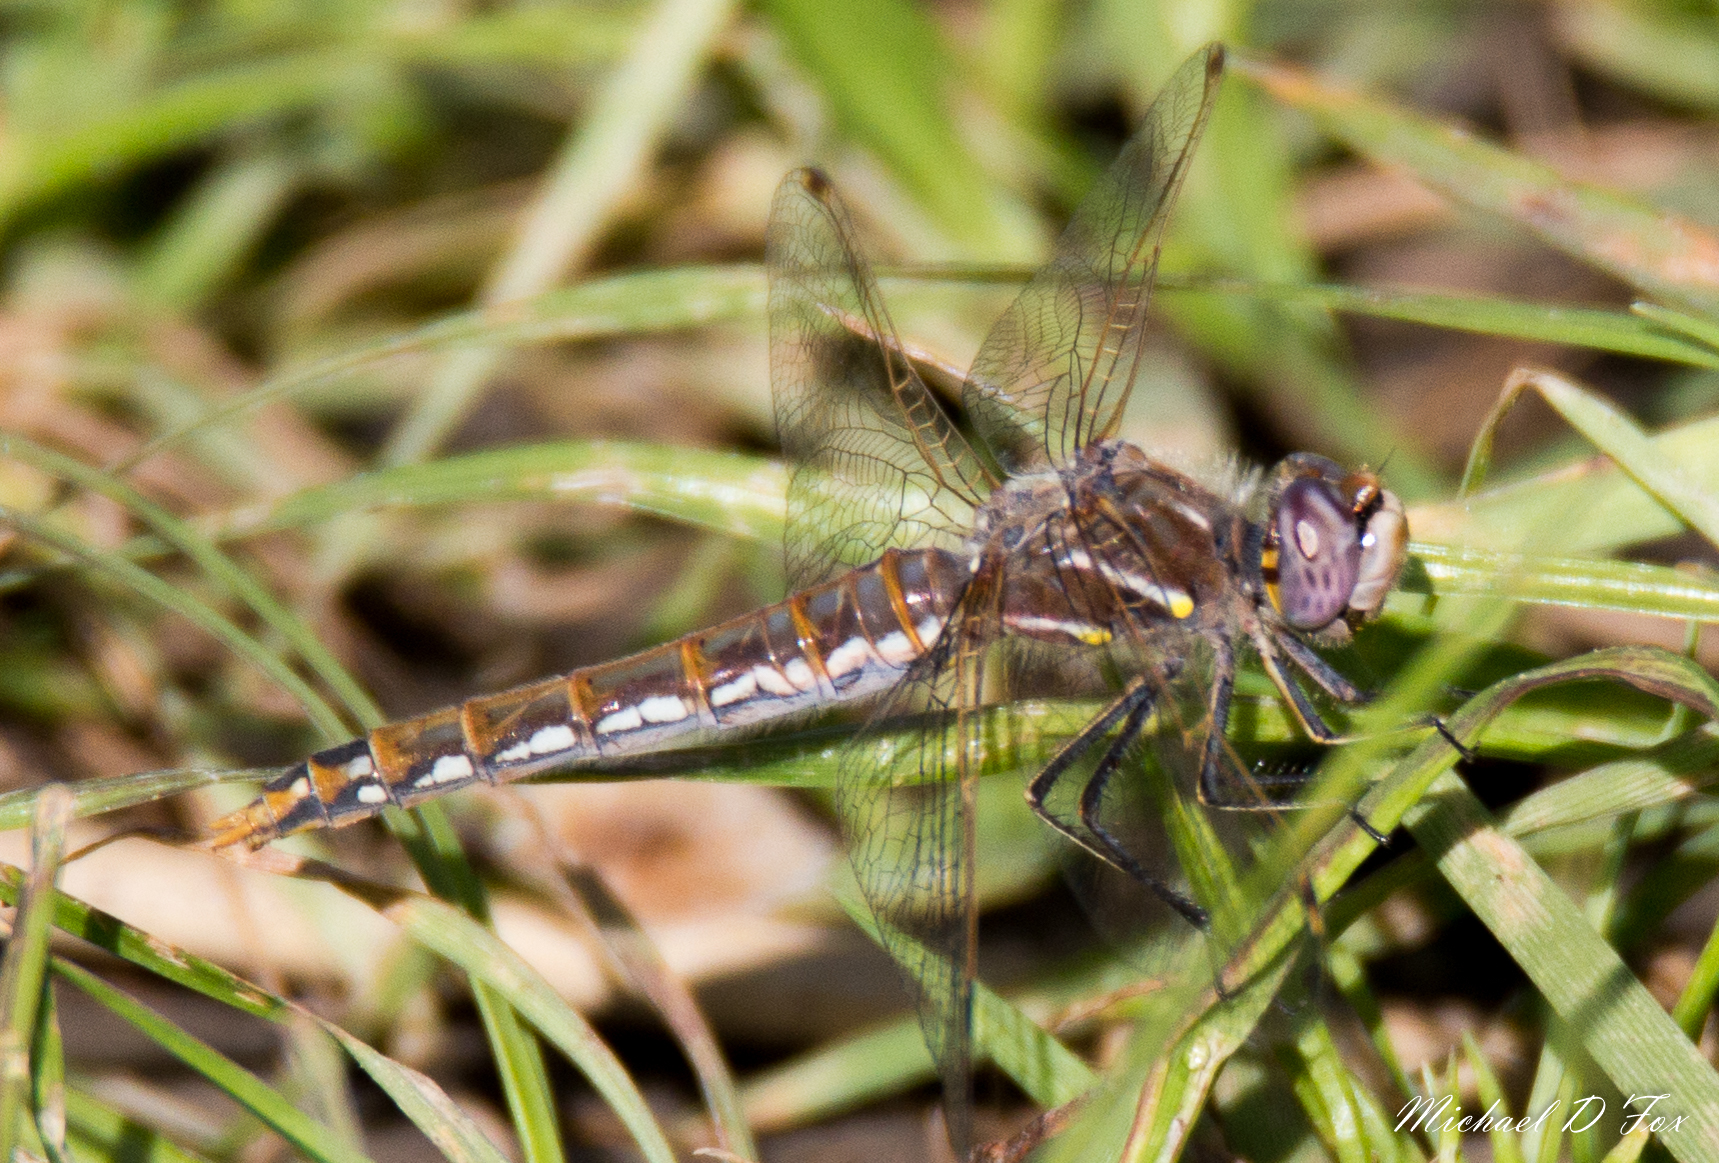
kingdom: Animalia
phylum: Arthropoda
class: Insecta
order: Odonata
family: Libellulidae
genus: Sympetrum
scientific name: Sympetrum corruptum
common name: Variegated meadowhawk
